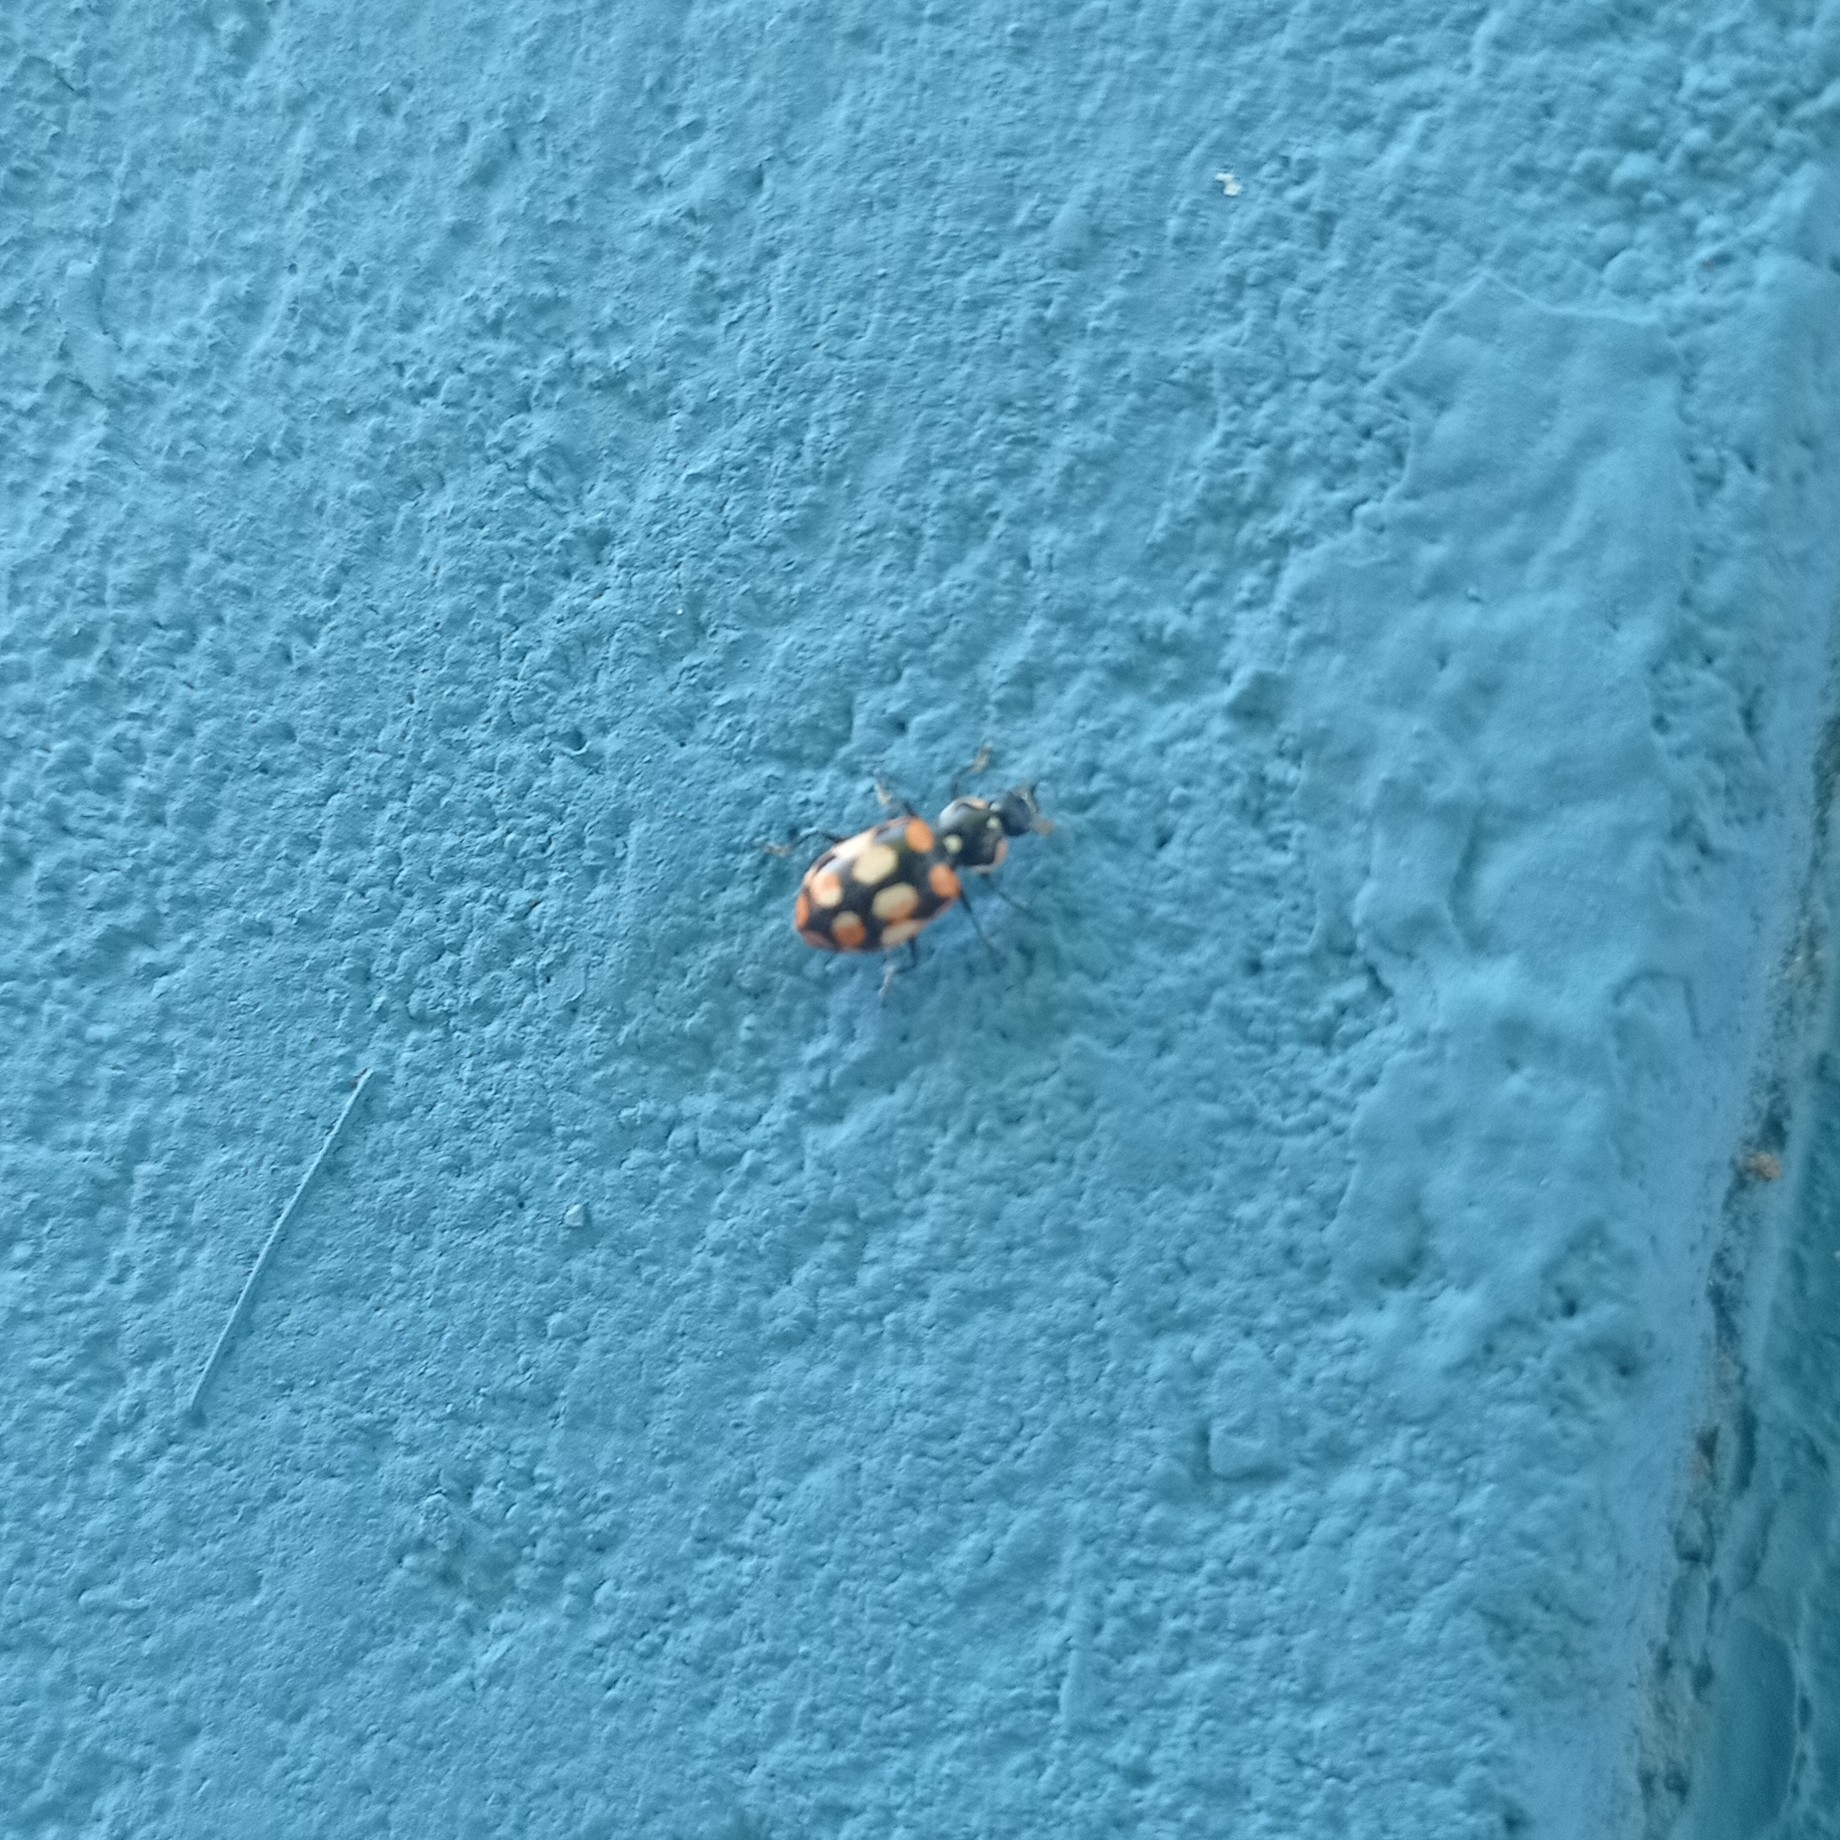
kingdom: Animalia
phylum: Arthropoda
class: Insecta
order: Coleoptera
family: Coccinellidae
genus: Eriopis
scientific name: Eriopis chilensis
